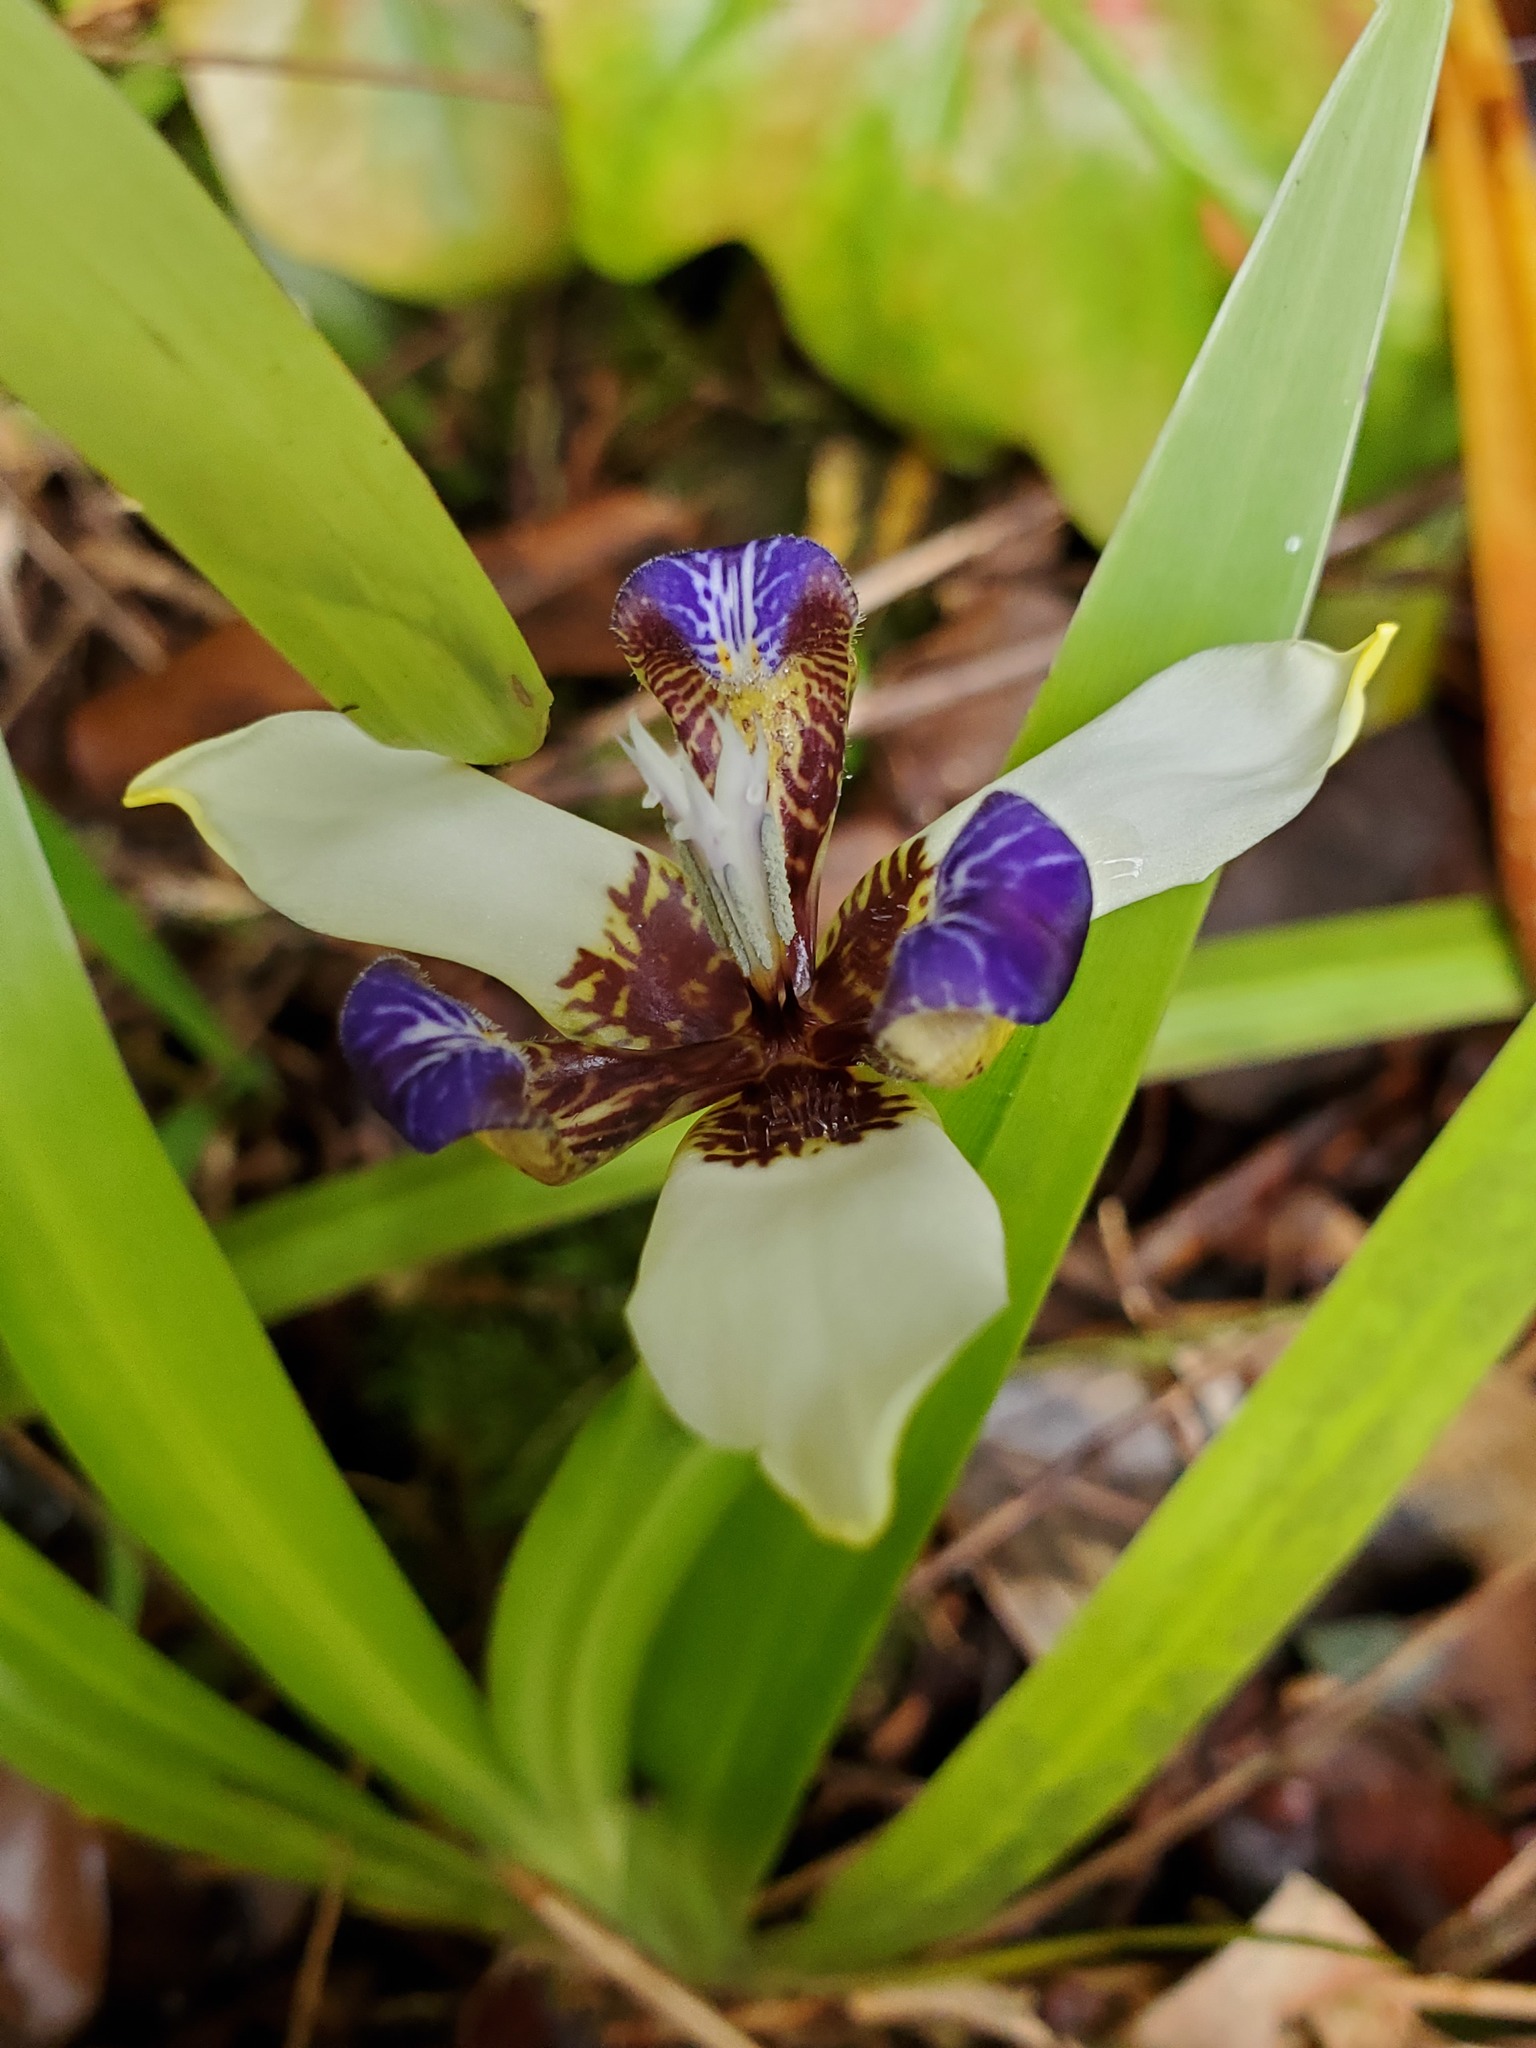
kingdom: Plantae
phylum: Tracheophyta
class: Liliopsida
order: Asparagales
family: Iridaceae
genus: Trimezia
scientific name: Trimezia northiana
